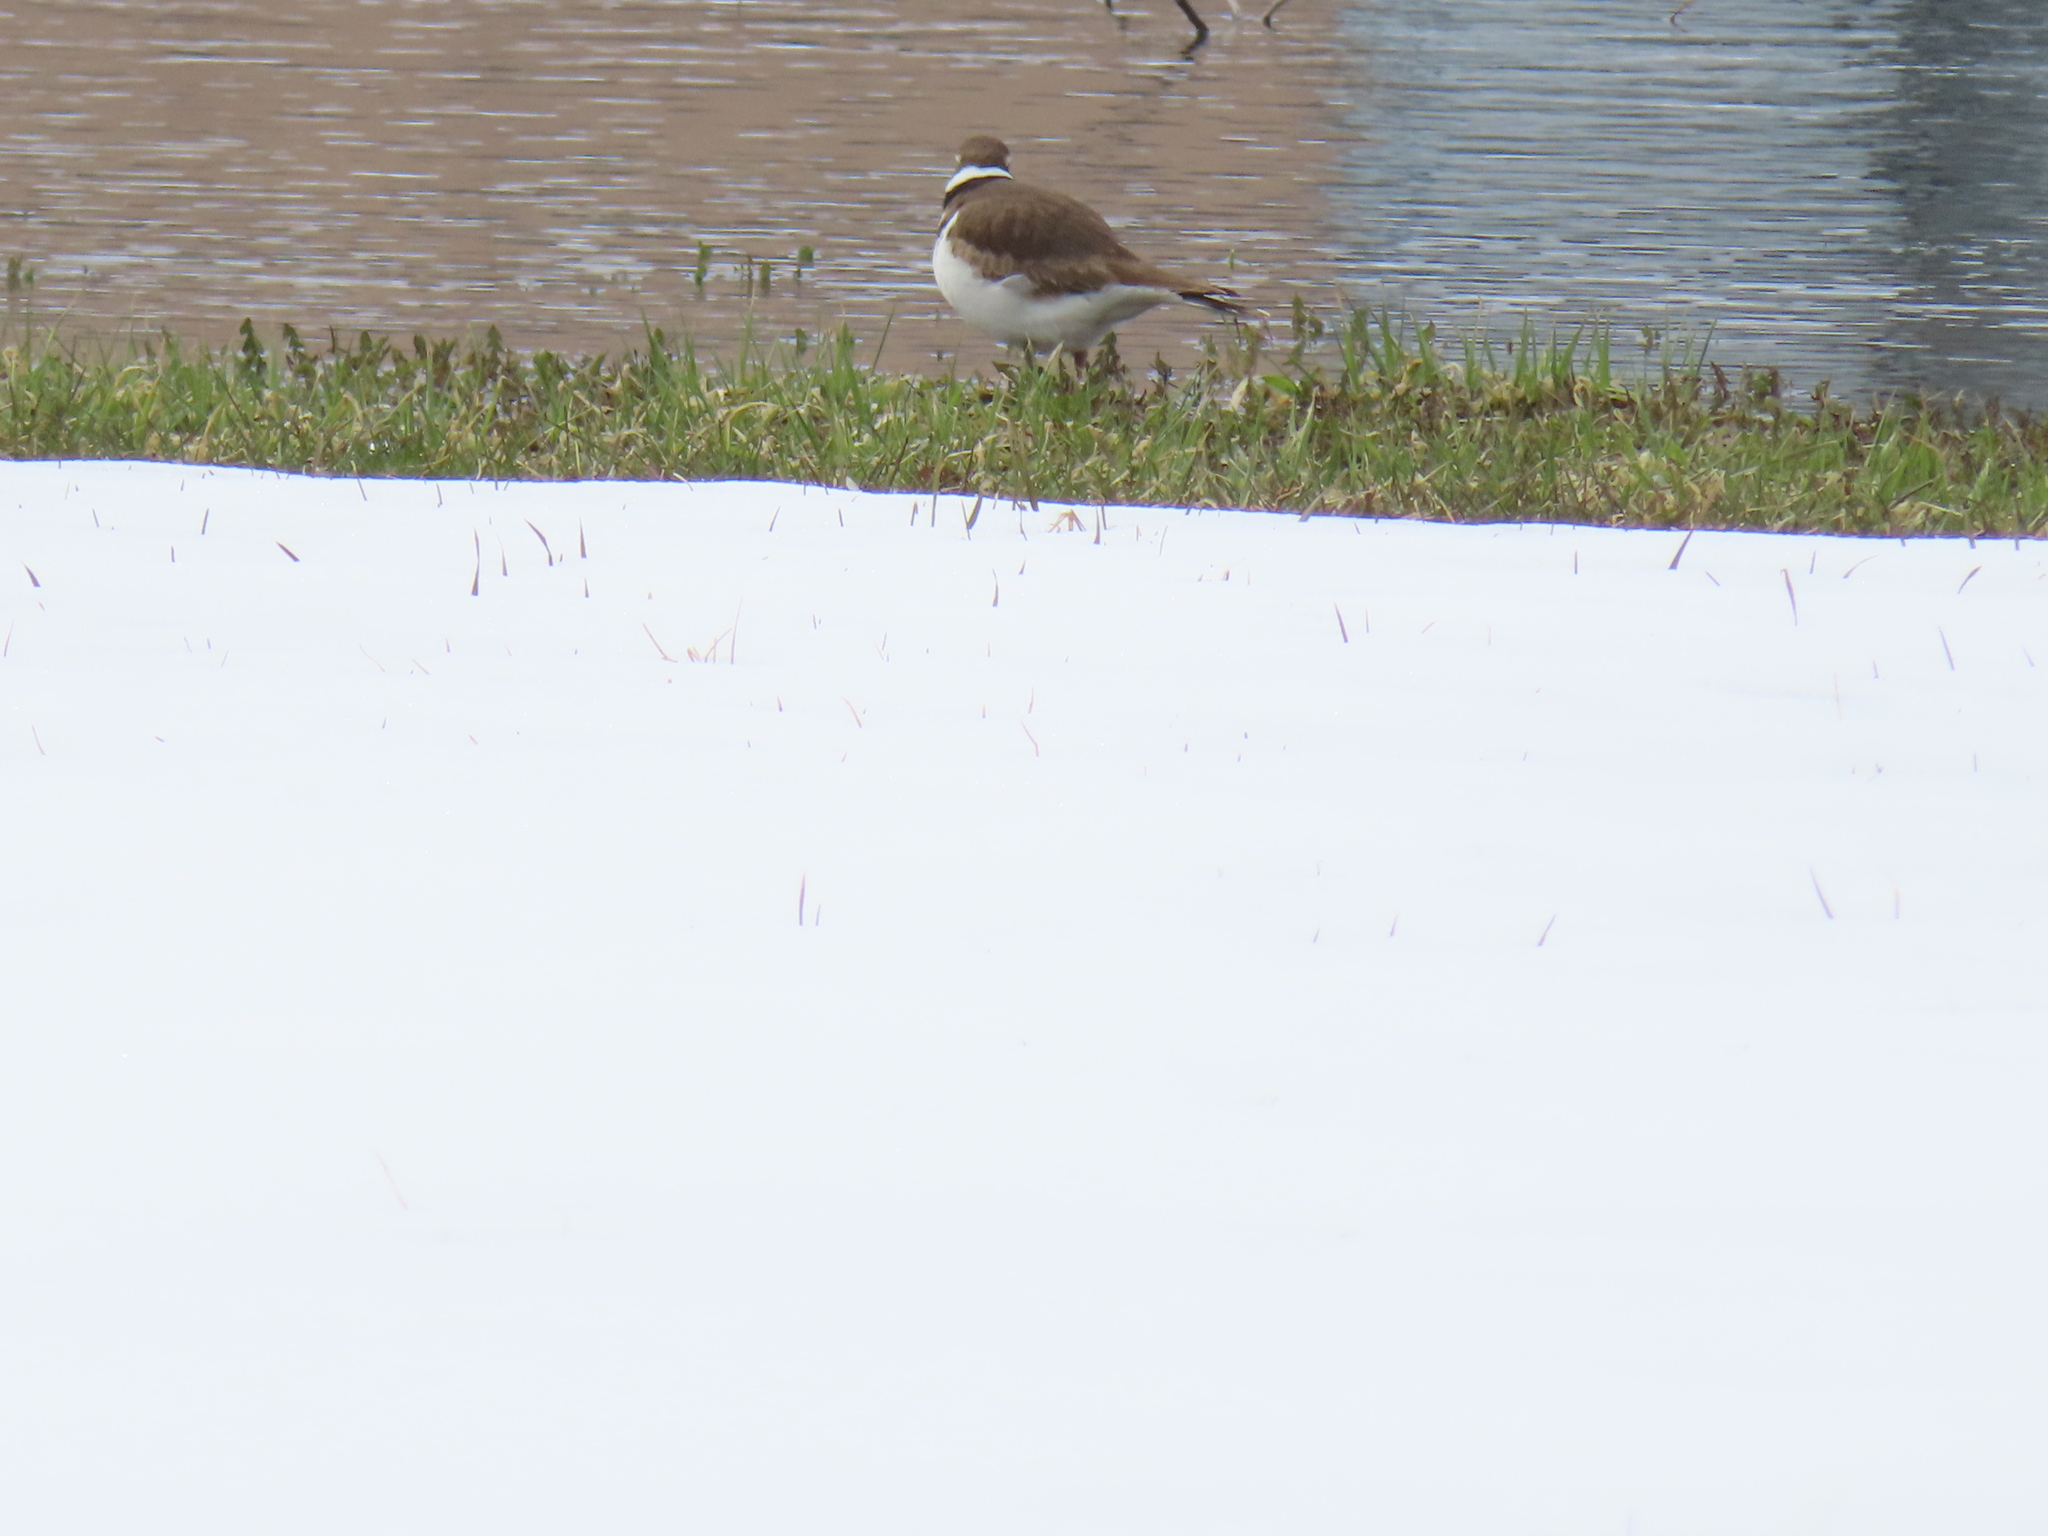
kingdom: Animalia
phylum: Chordata
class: Aves
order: Charadriiformes
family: Charadriidae
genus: Charadrius
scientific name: Charadrius vociferus
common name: Killdeer
